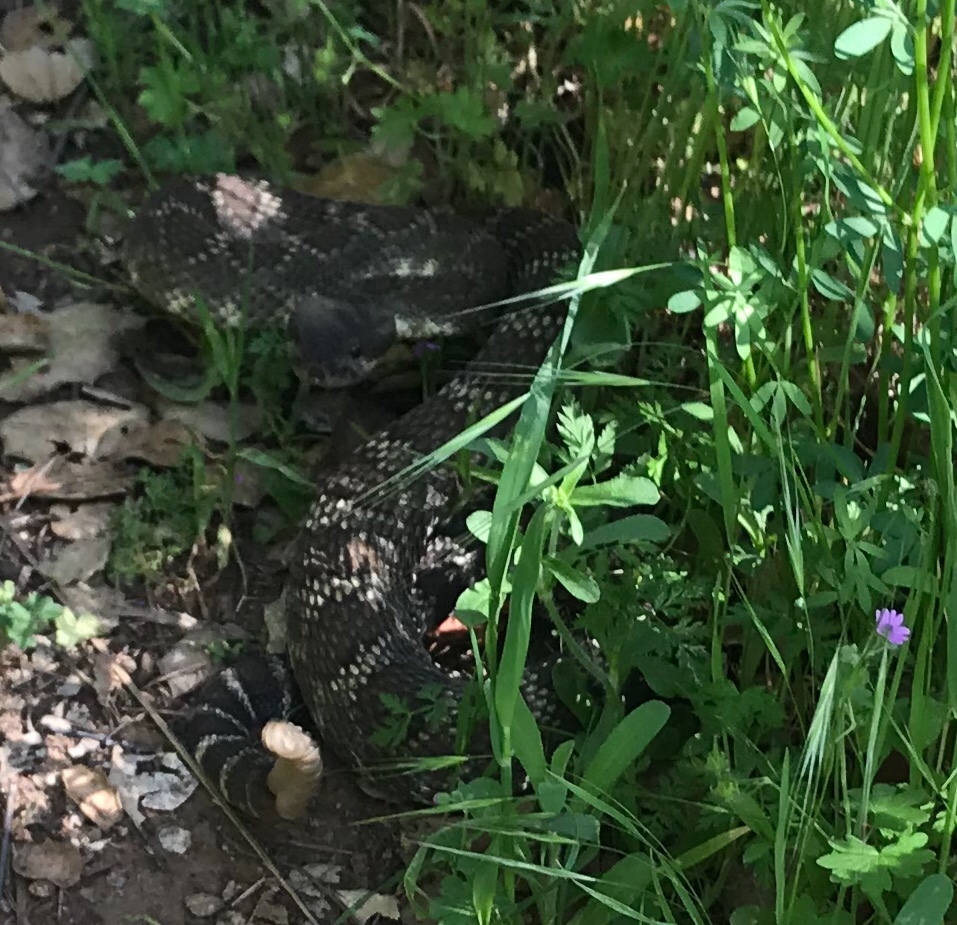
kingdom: Animalia
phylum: Chordata
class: Squamata
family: Viperidae
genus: Crotalus
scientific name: Crotalus oreganus
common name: Abyssus
